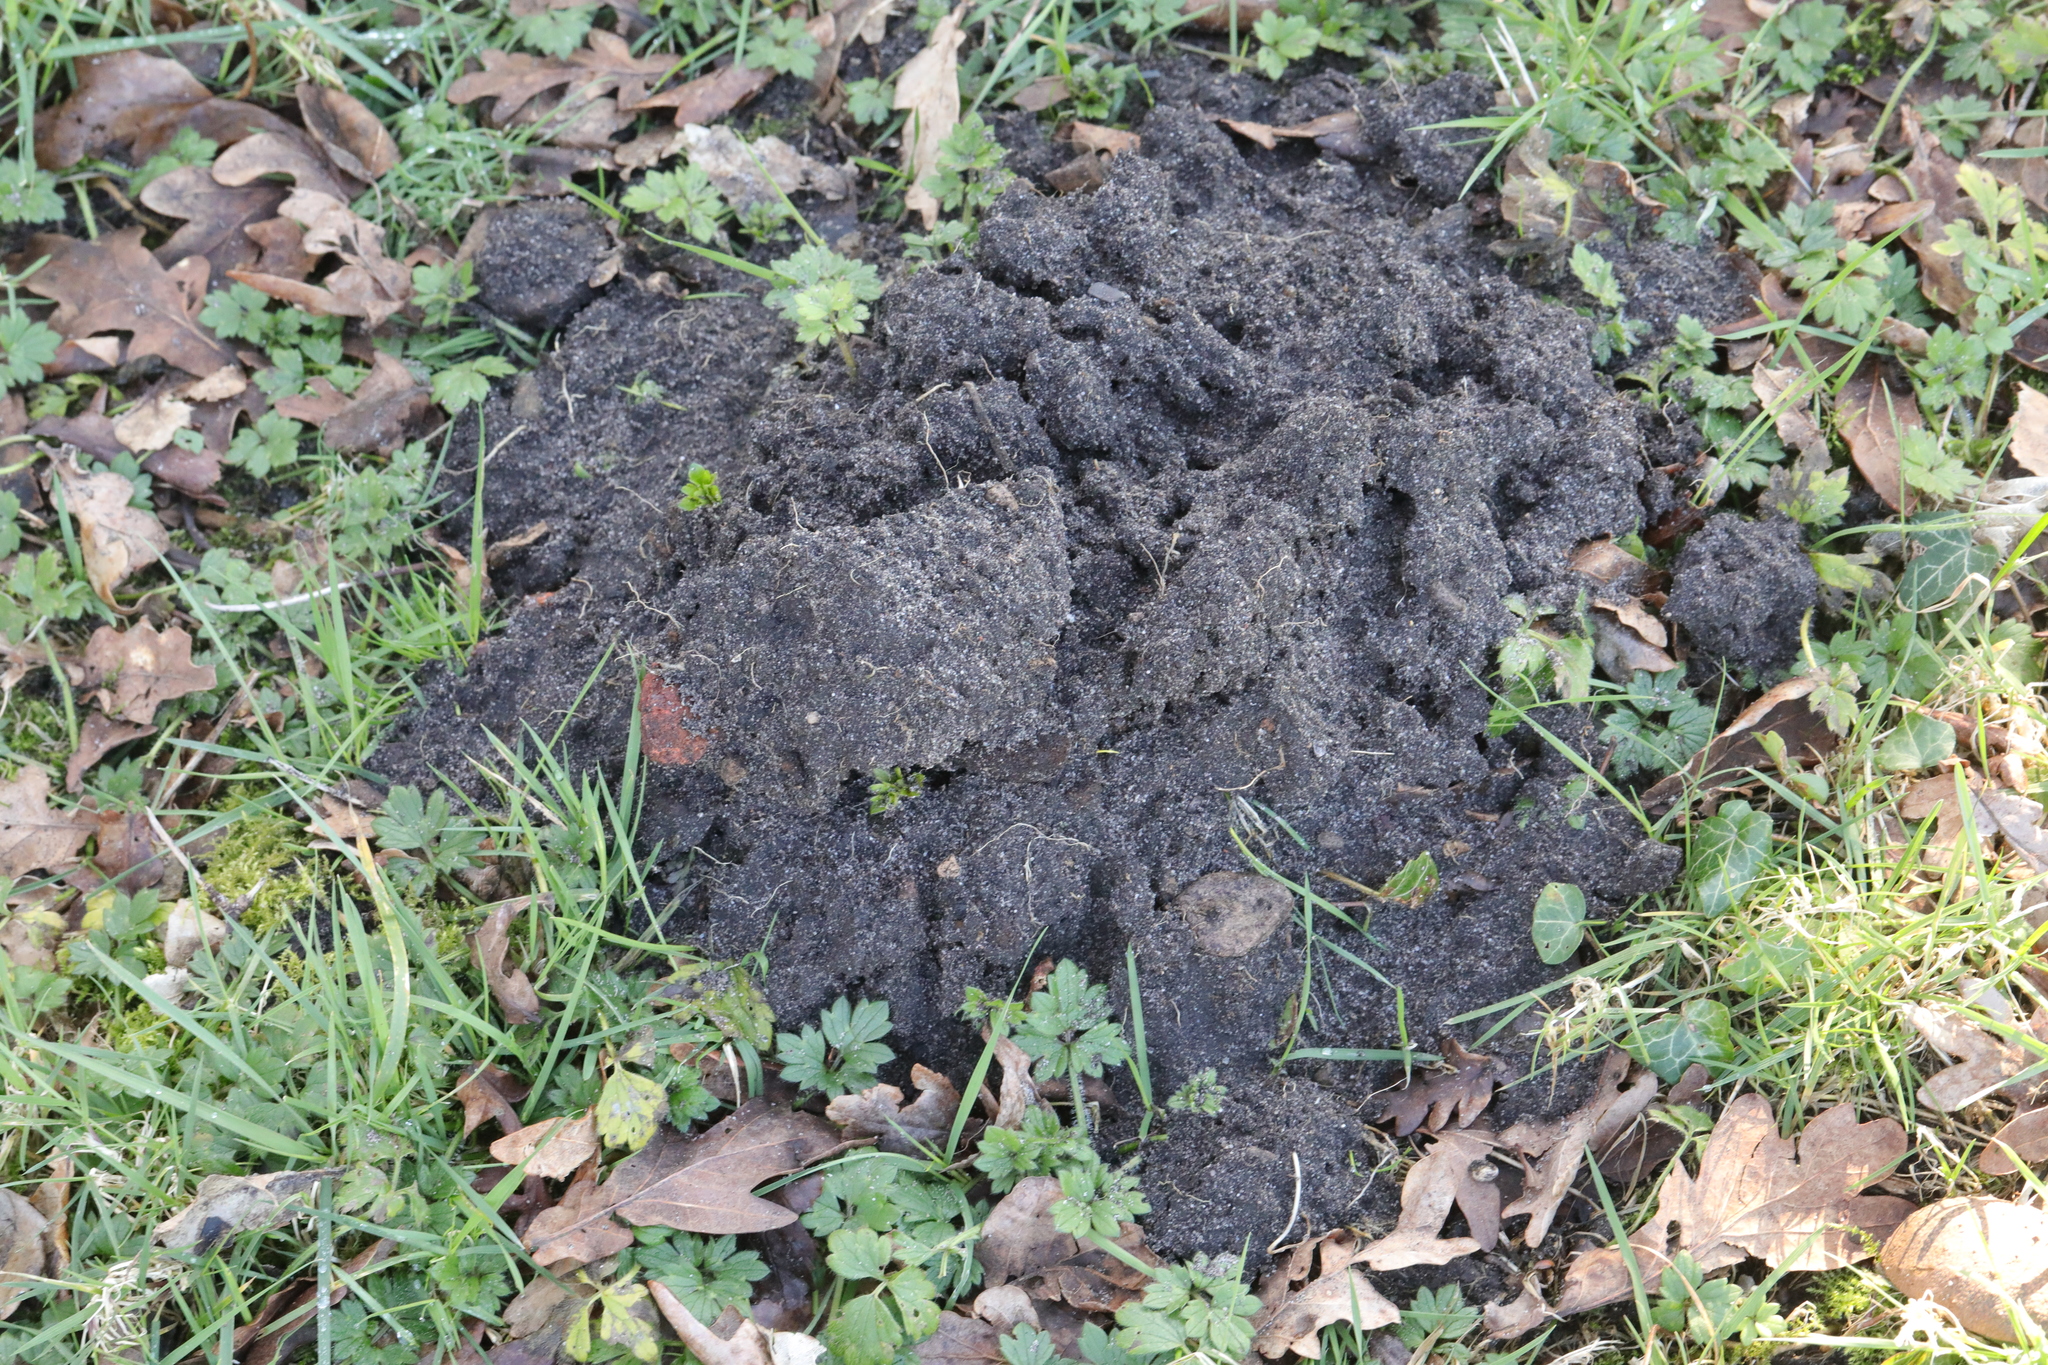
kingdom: Animalia
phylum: Chordata
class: Mammalia
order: Soricomorpha
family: Talpidae
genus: Talpa
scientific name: Talpa europaea
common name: European mole
